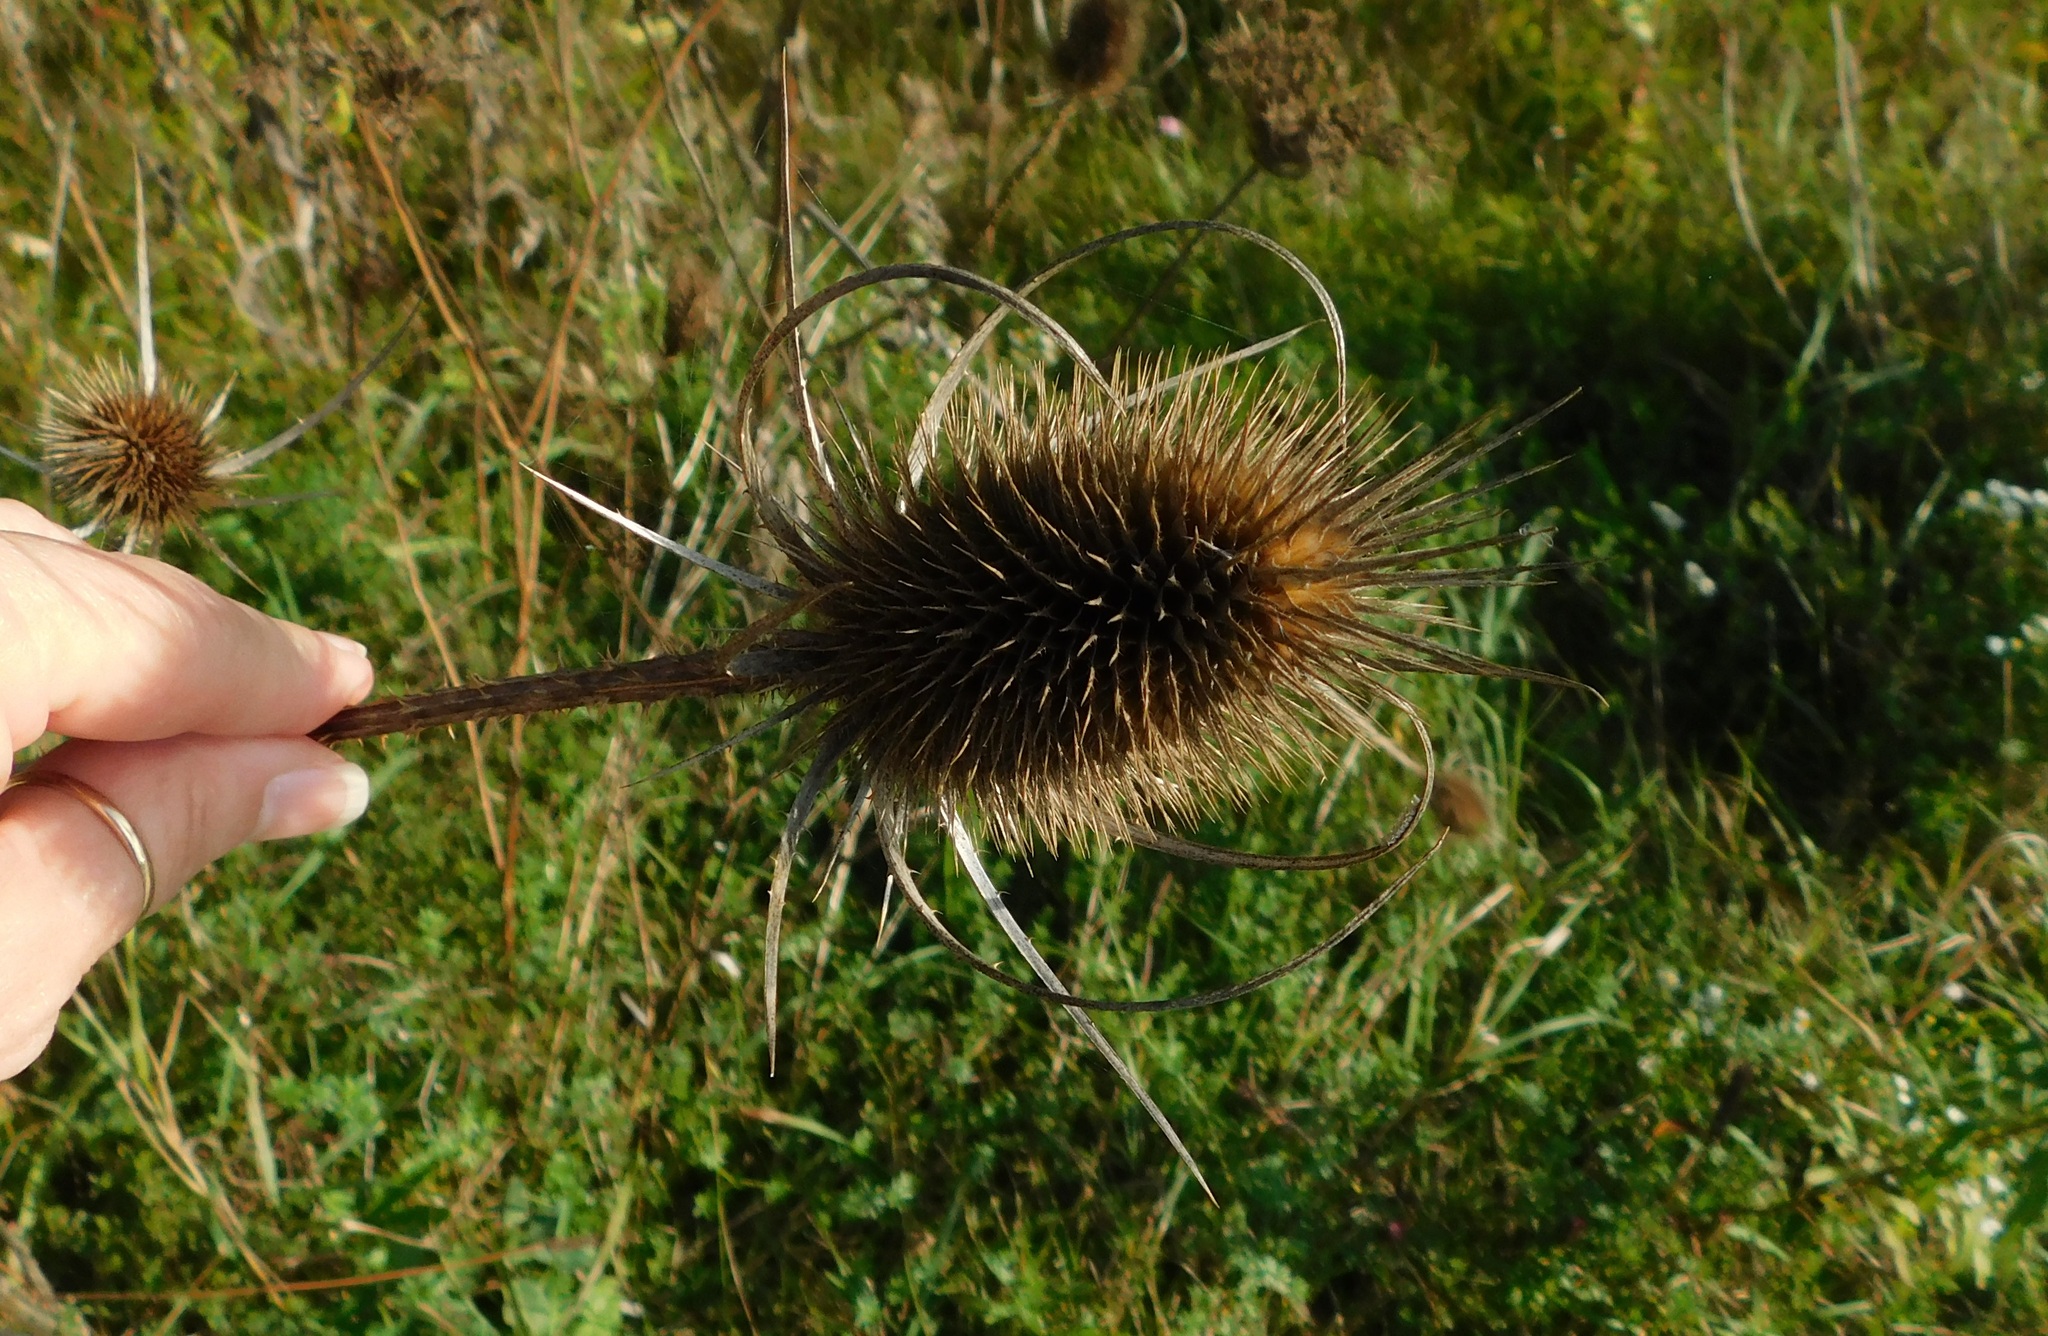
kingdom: Plantae
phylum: Tracheophyta
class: Magnoliopsida
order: Dipsacales
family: Caprifoliaceae
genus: Dipsacus
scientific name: Dipsacus fullonum
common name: Teasel
